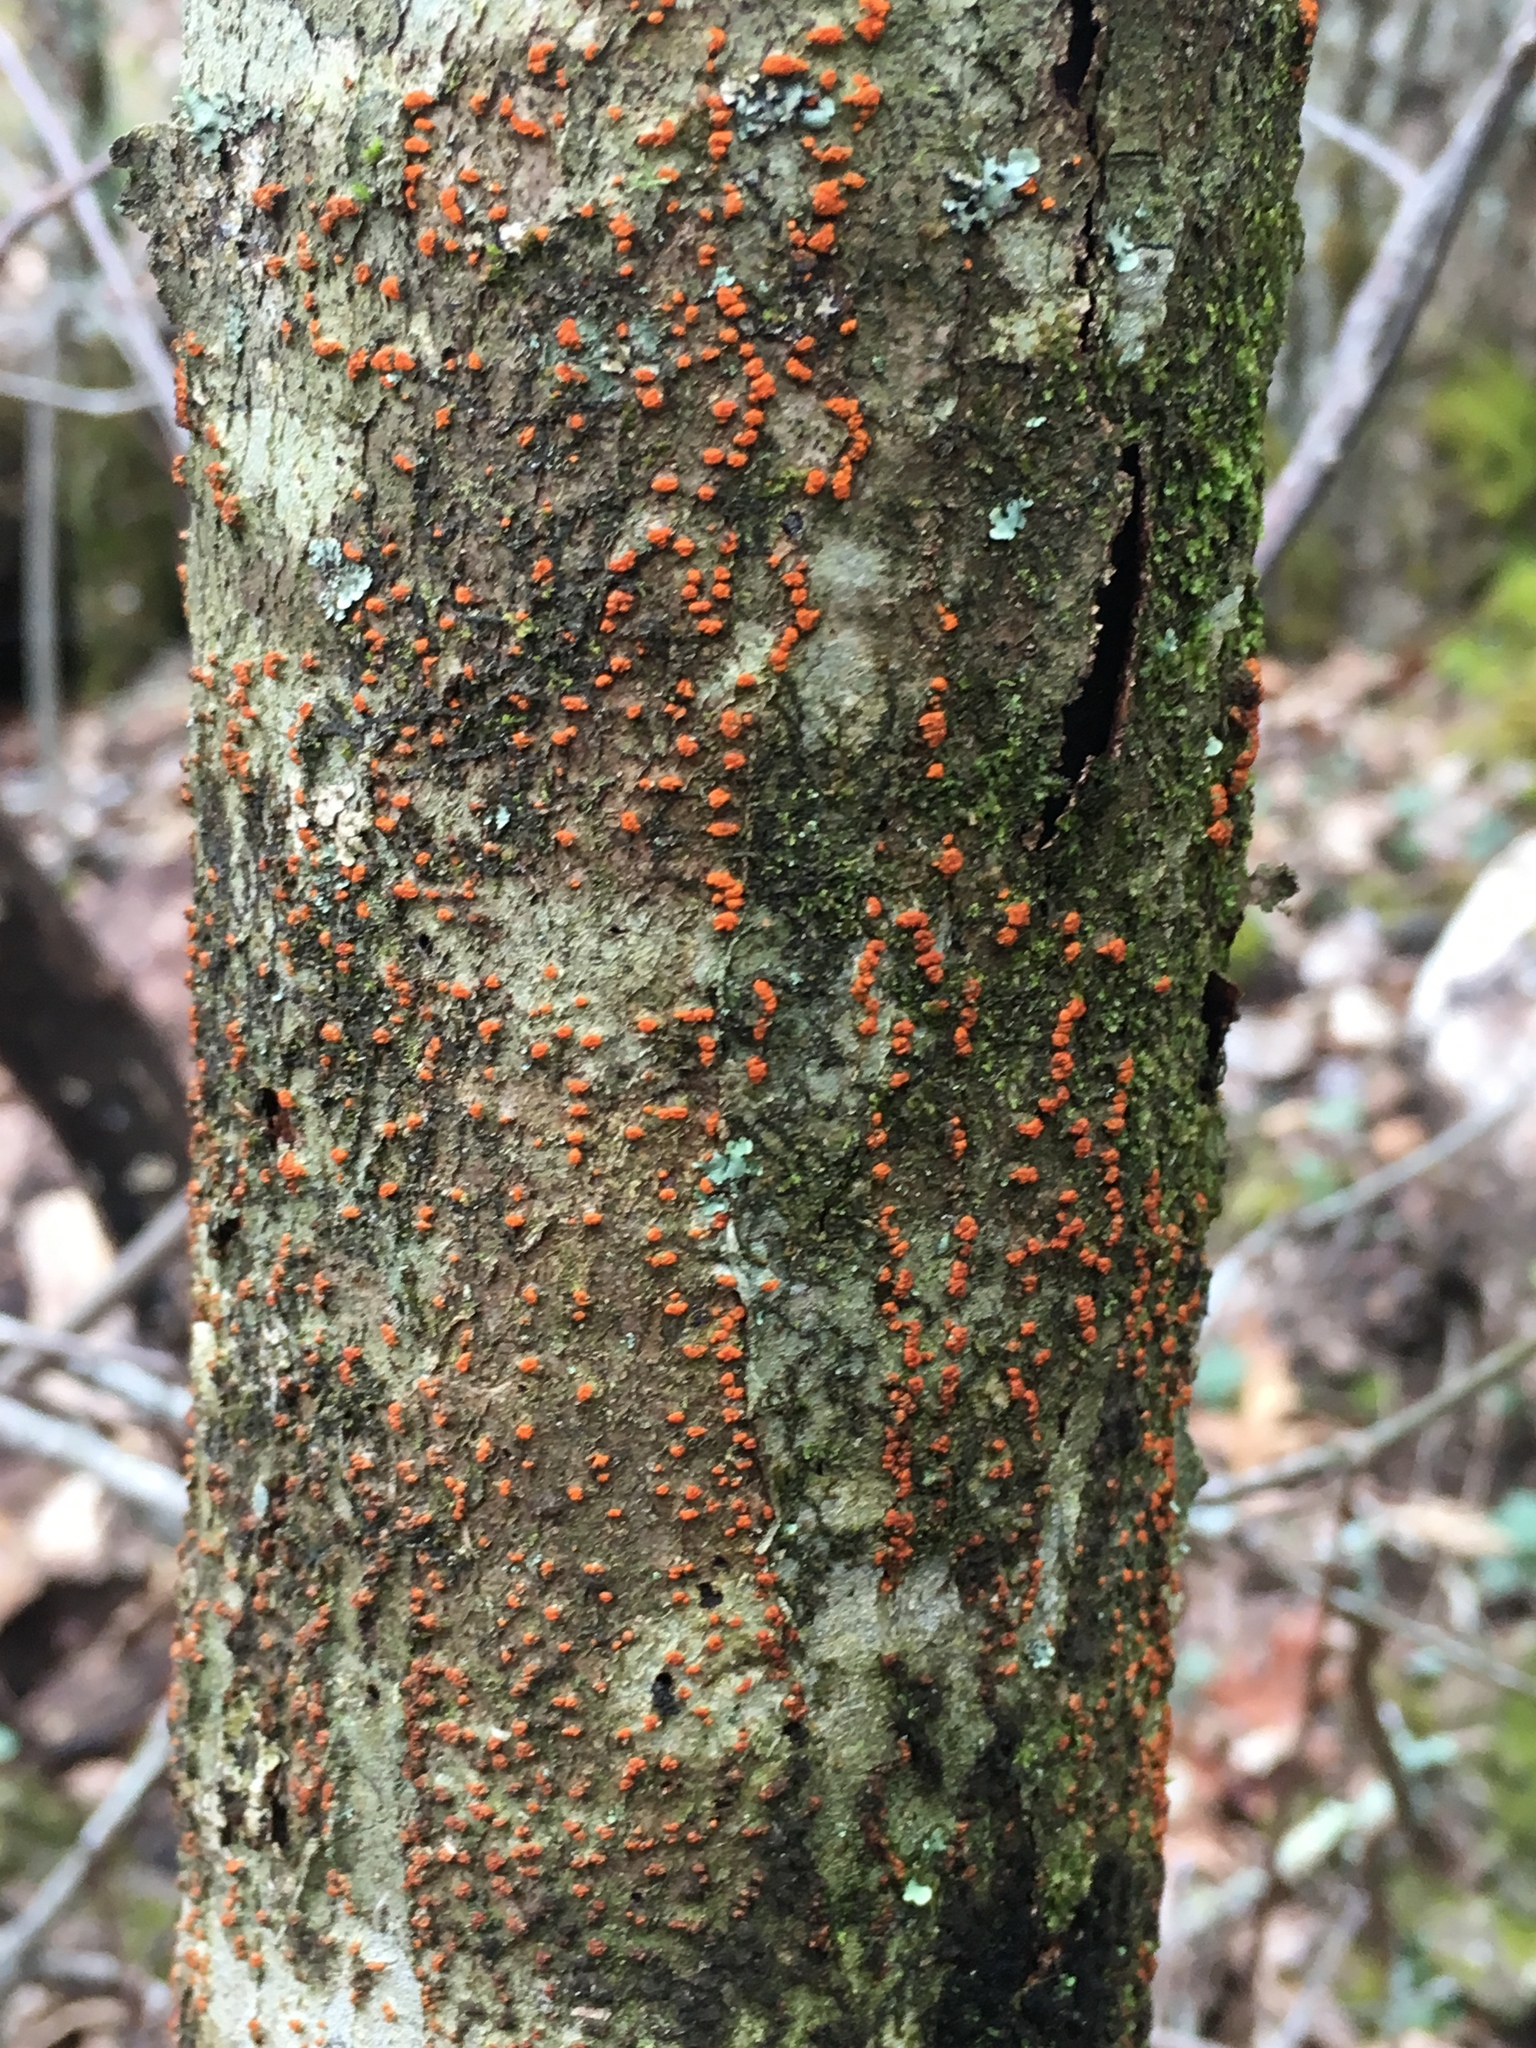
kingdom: Fungi
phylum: Ascomycota
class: Sordariomycetes
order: Diaporthales
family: Cryphonectriaceae
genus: Cryphonectria
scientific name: Cryphonectria parasitica
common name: Chestnut blight
